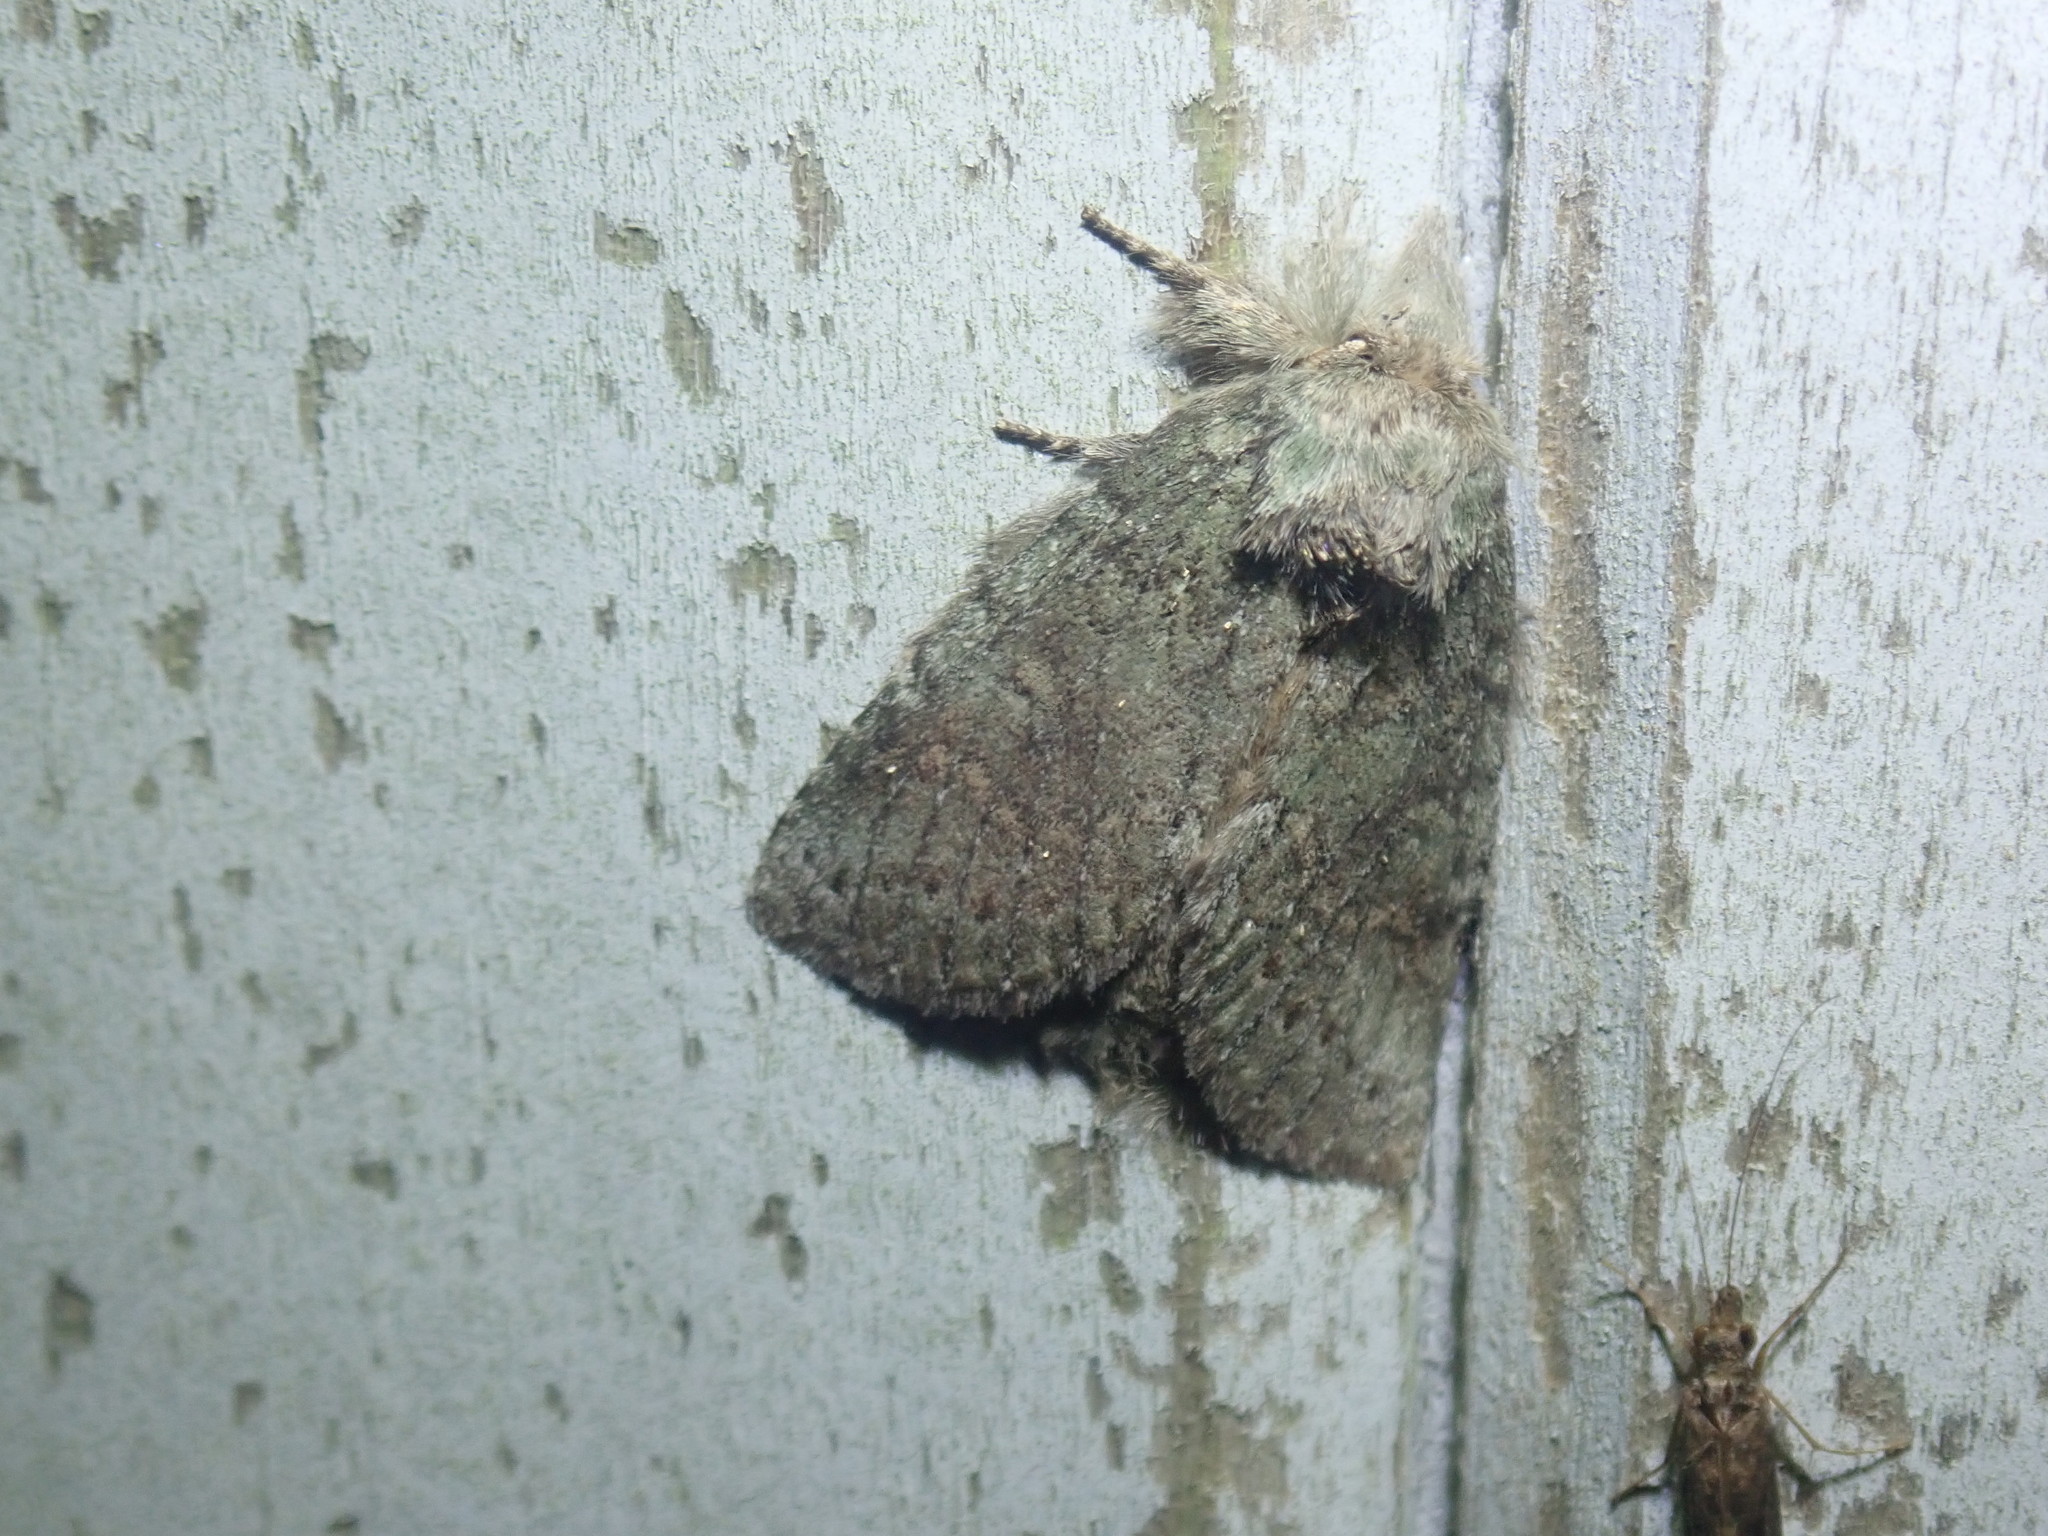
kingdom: Animalia
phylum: Arthropoda
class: Insecta
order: Lepidoptera
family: Notodontidae
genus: Disphragis
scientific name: Disphragis Cecrita guttivitta
